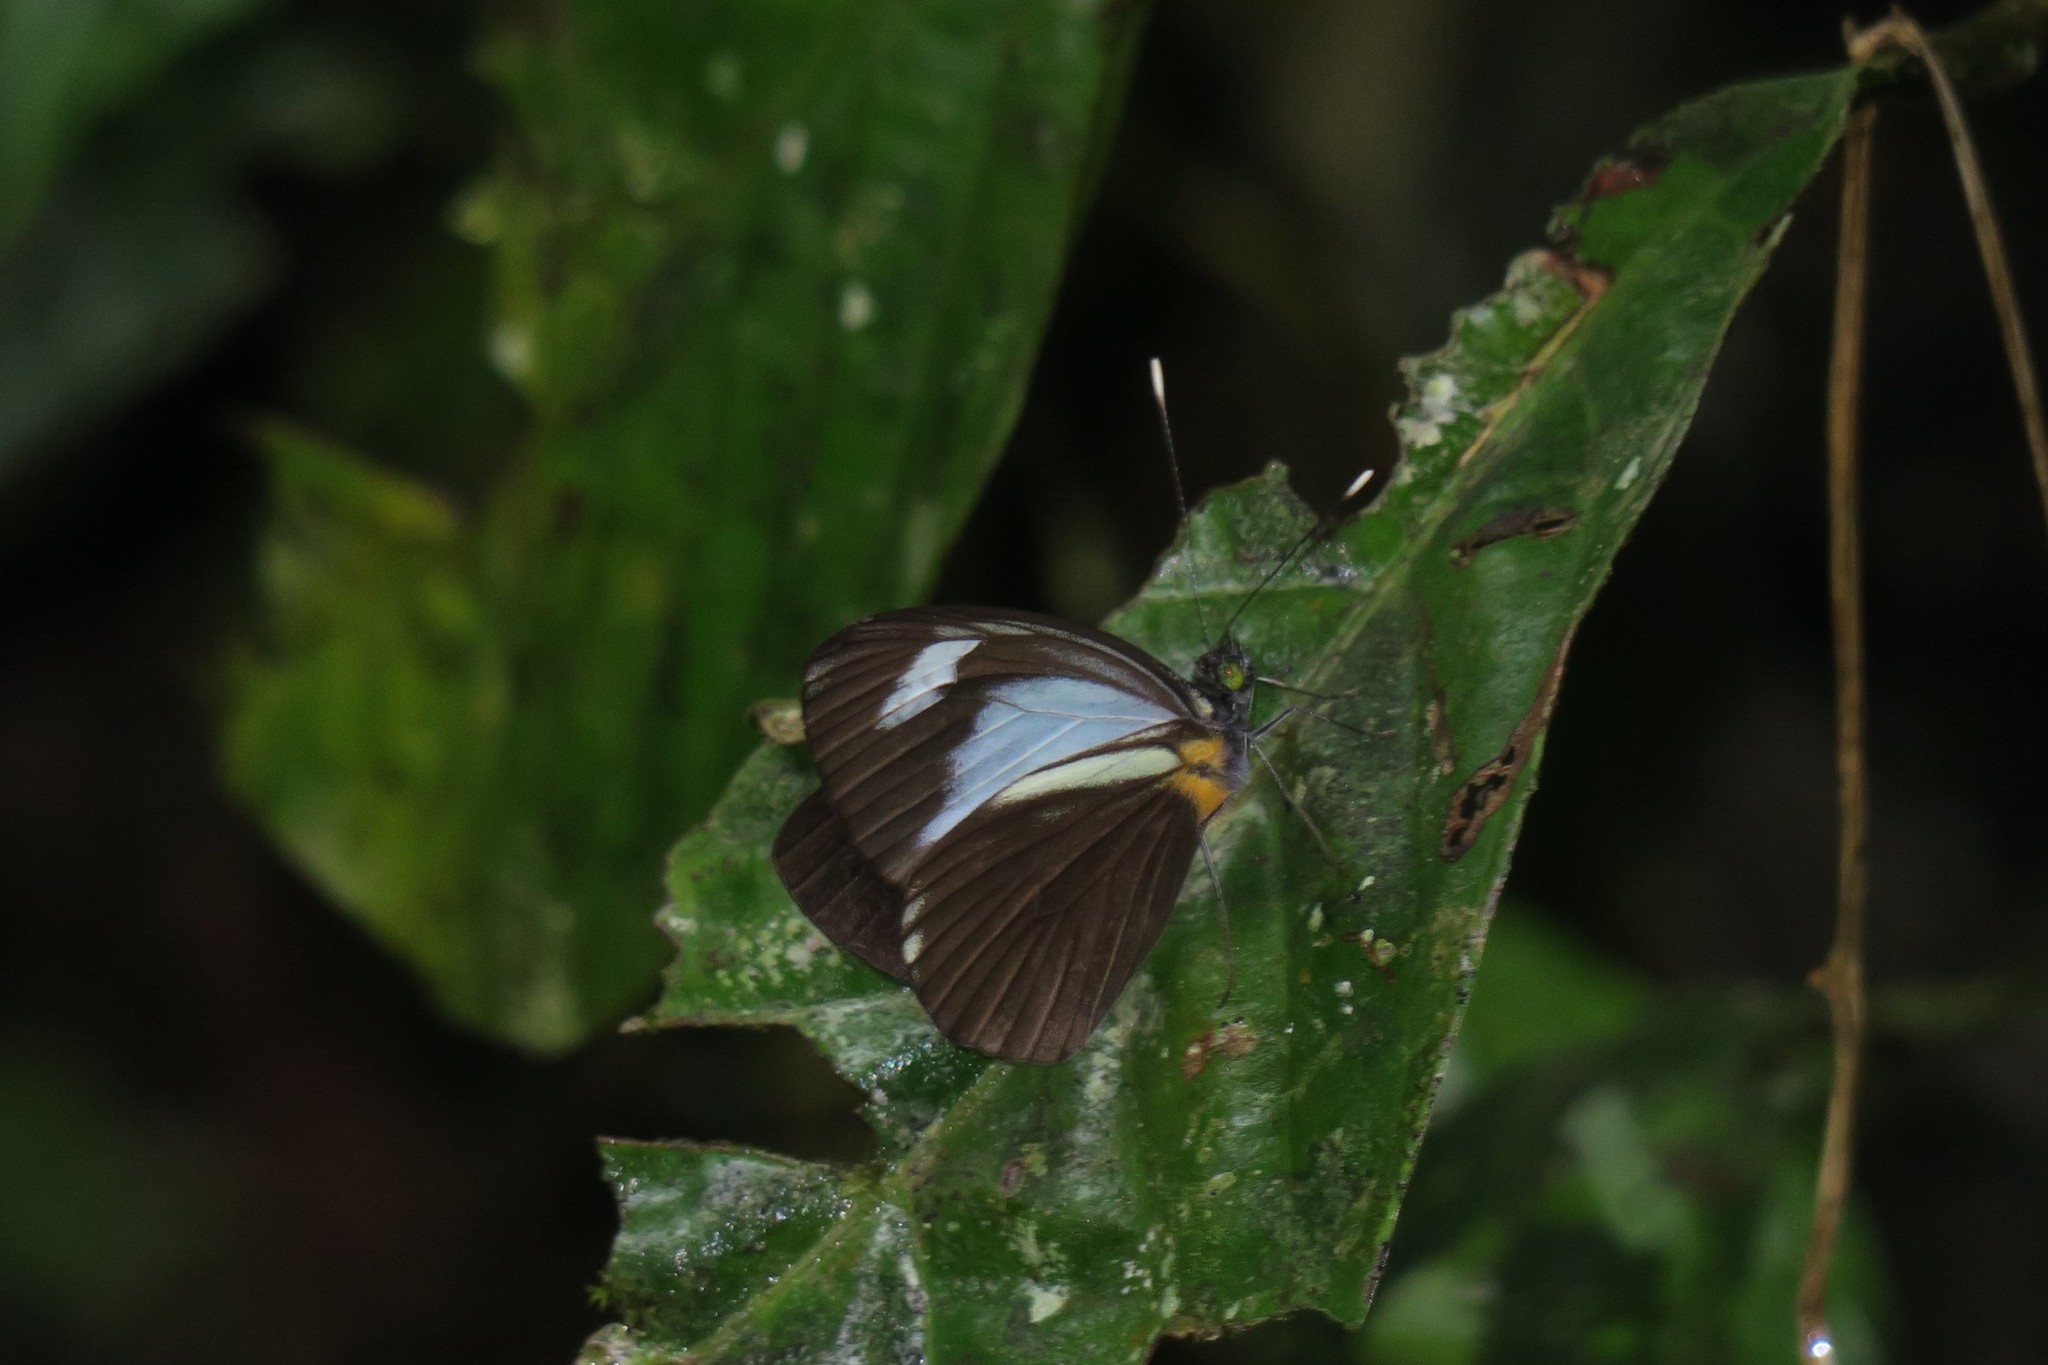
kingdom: Animalia
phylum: Arthropoda
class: Insecta
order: Lepidoptera
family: Pieridae
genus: Leptophobia
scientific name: Leptophobia cinerea
